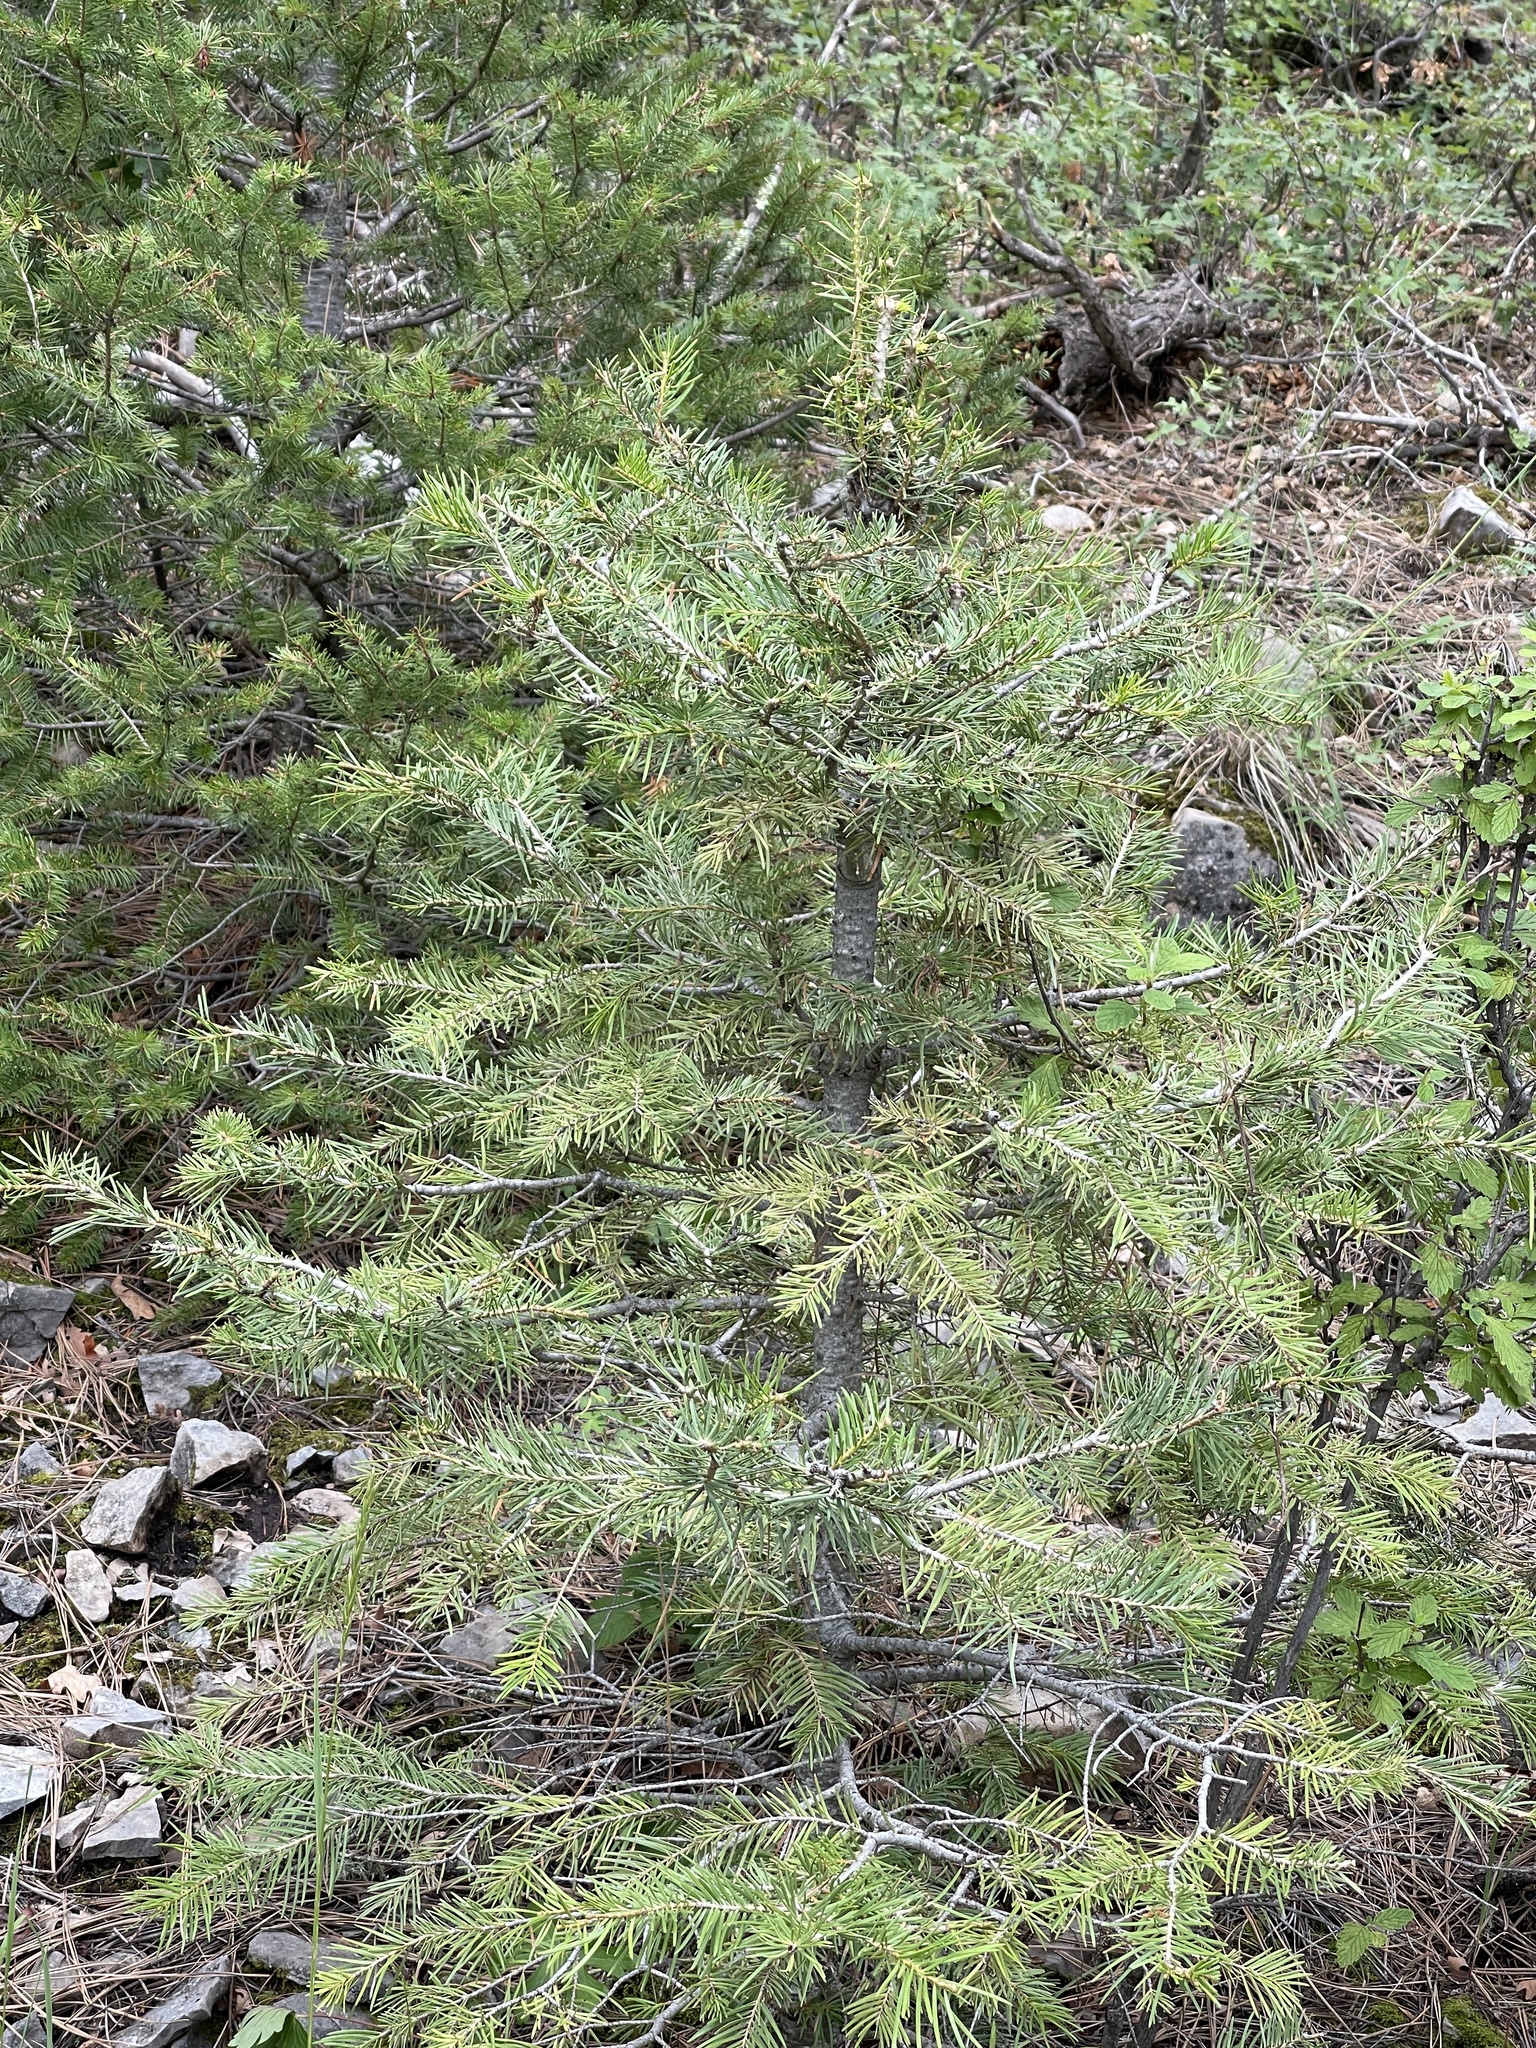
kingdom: Plantae
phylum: Tracheophyta
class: Pinopsida
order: Pinales
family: Pinaceae
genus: Abies
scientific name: Abies concolor
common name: Colorado fir
